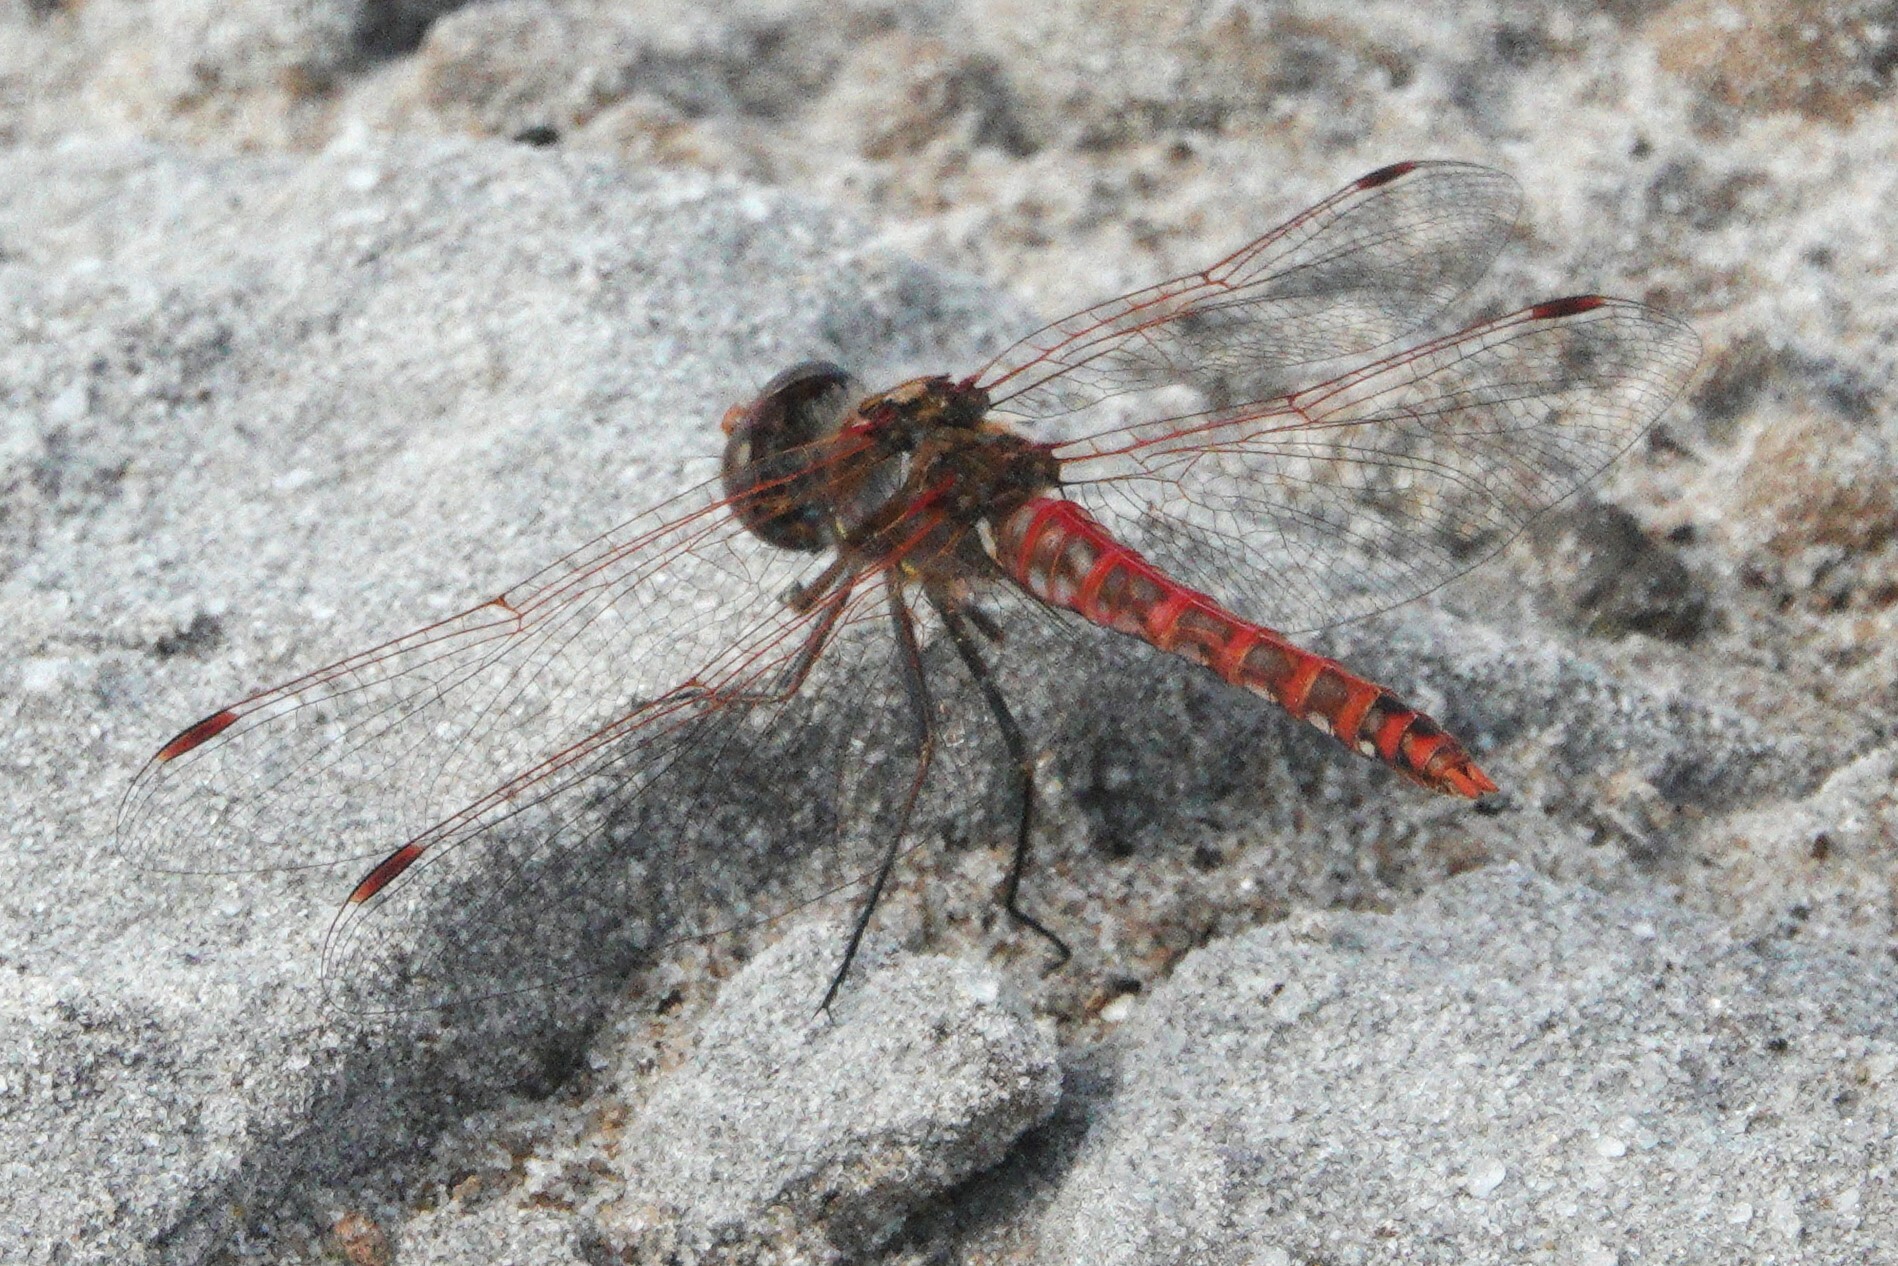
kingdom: Animalia
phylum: Arthropoda
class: Insecta
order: Odonata
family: Libellulidae
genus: Sympetrum
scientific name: Sympetrum corruptum
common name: Variegated meadowhawk
